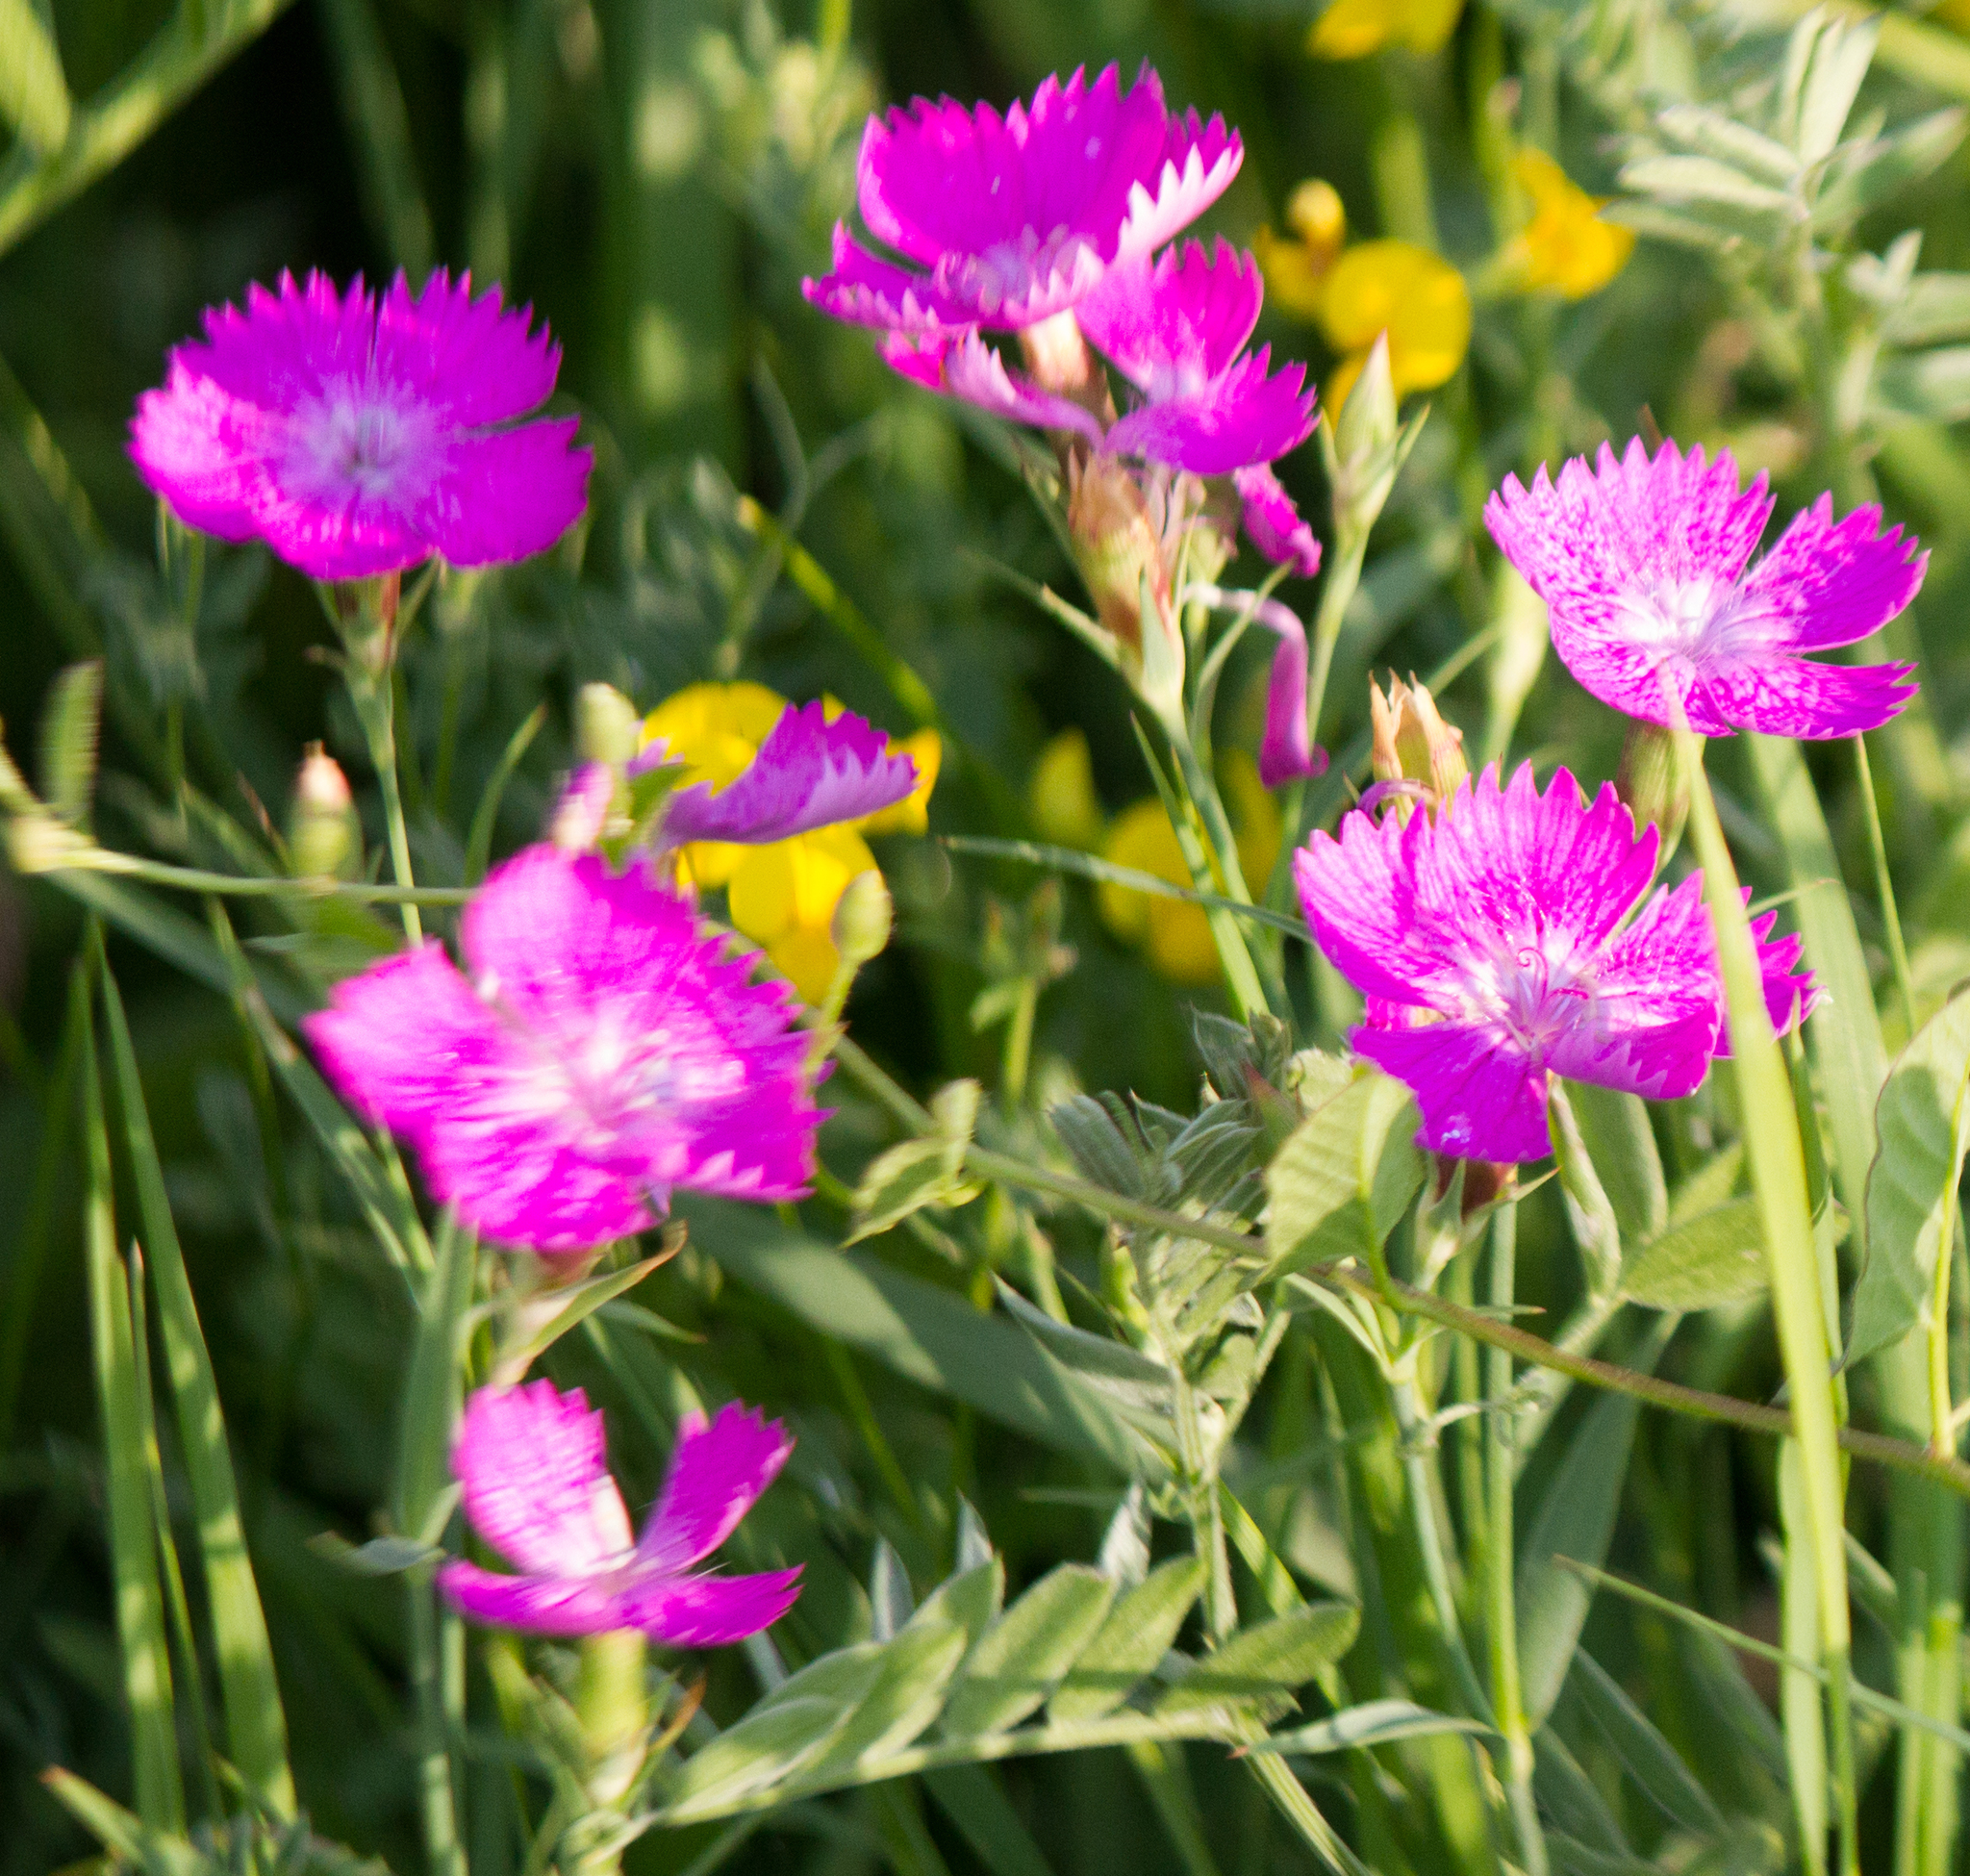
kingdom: Plantae
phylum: Tracheophyta
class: Magnoliopsida
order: Caryophyllales
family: Caryophyllaceae
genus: Dianthus
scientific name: Dianthus chinensis
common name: Rainbow pink
